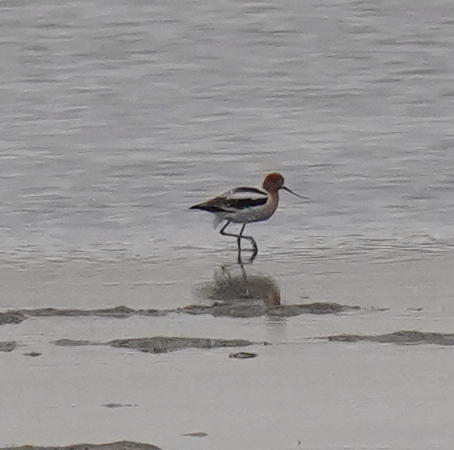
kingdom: Animalia
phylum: Chordata
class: Aves
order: Charadriiformes
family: Recurvirostridae
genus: Recurvirostra
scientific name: Recurvirostra americana
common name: American avocet
